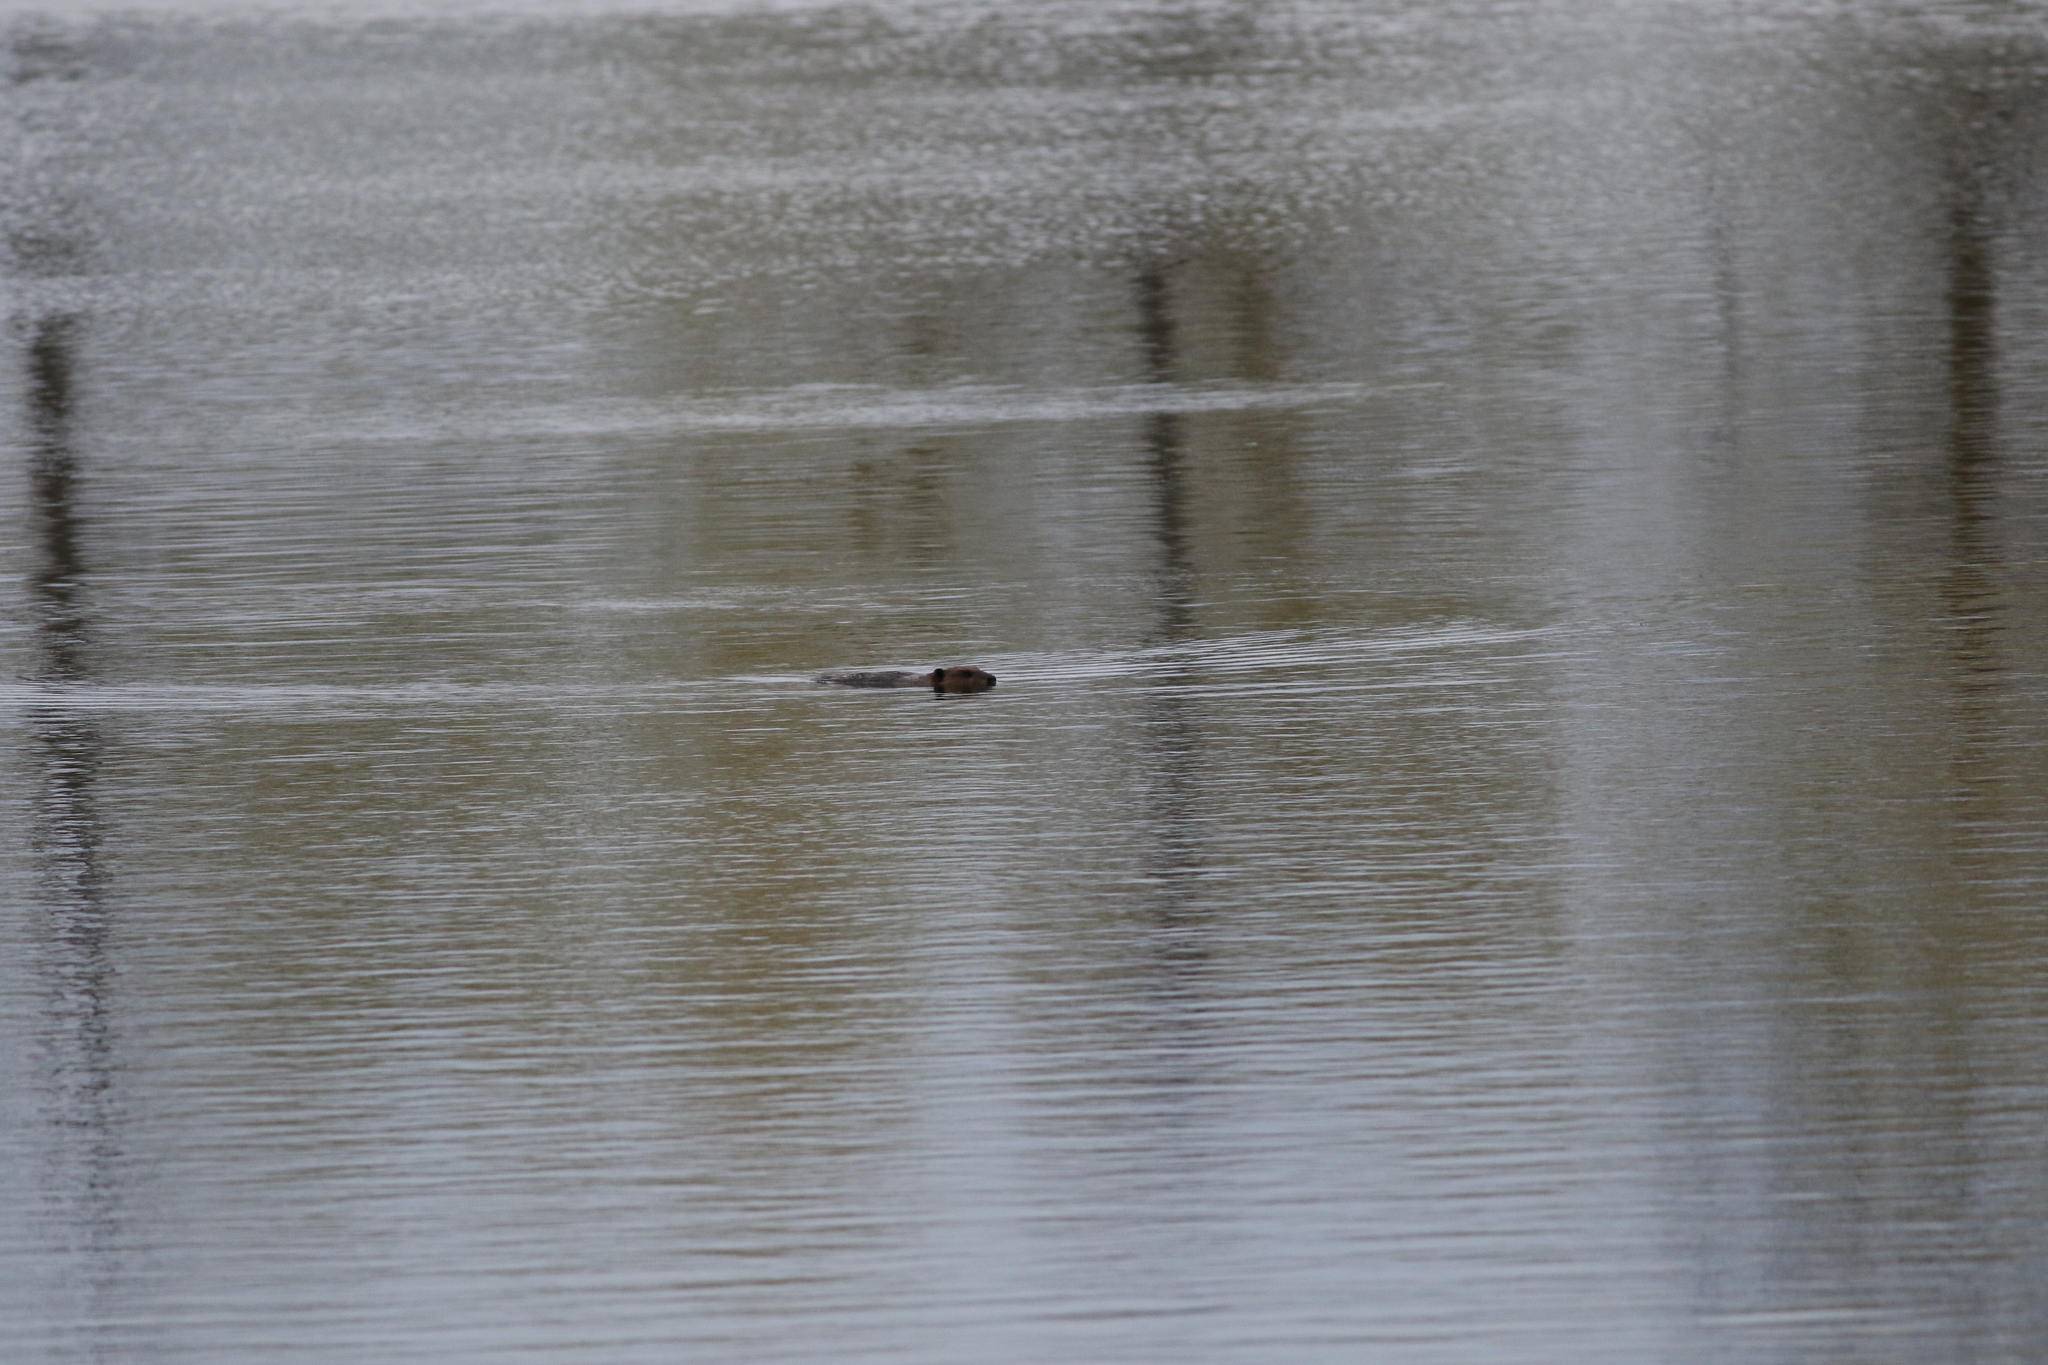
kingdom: Animalia
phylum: Chordata
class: Mammalia
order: Rodentia
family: Castoridae
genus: Castor
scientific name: Castor canadensis
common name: American beaver
